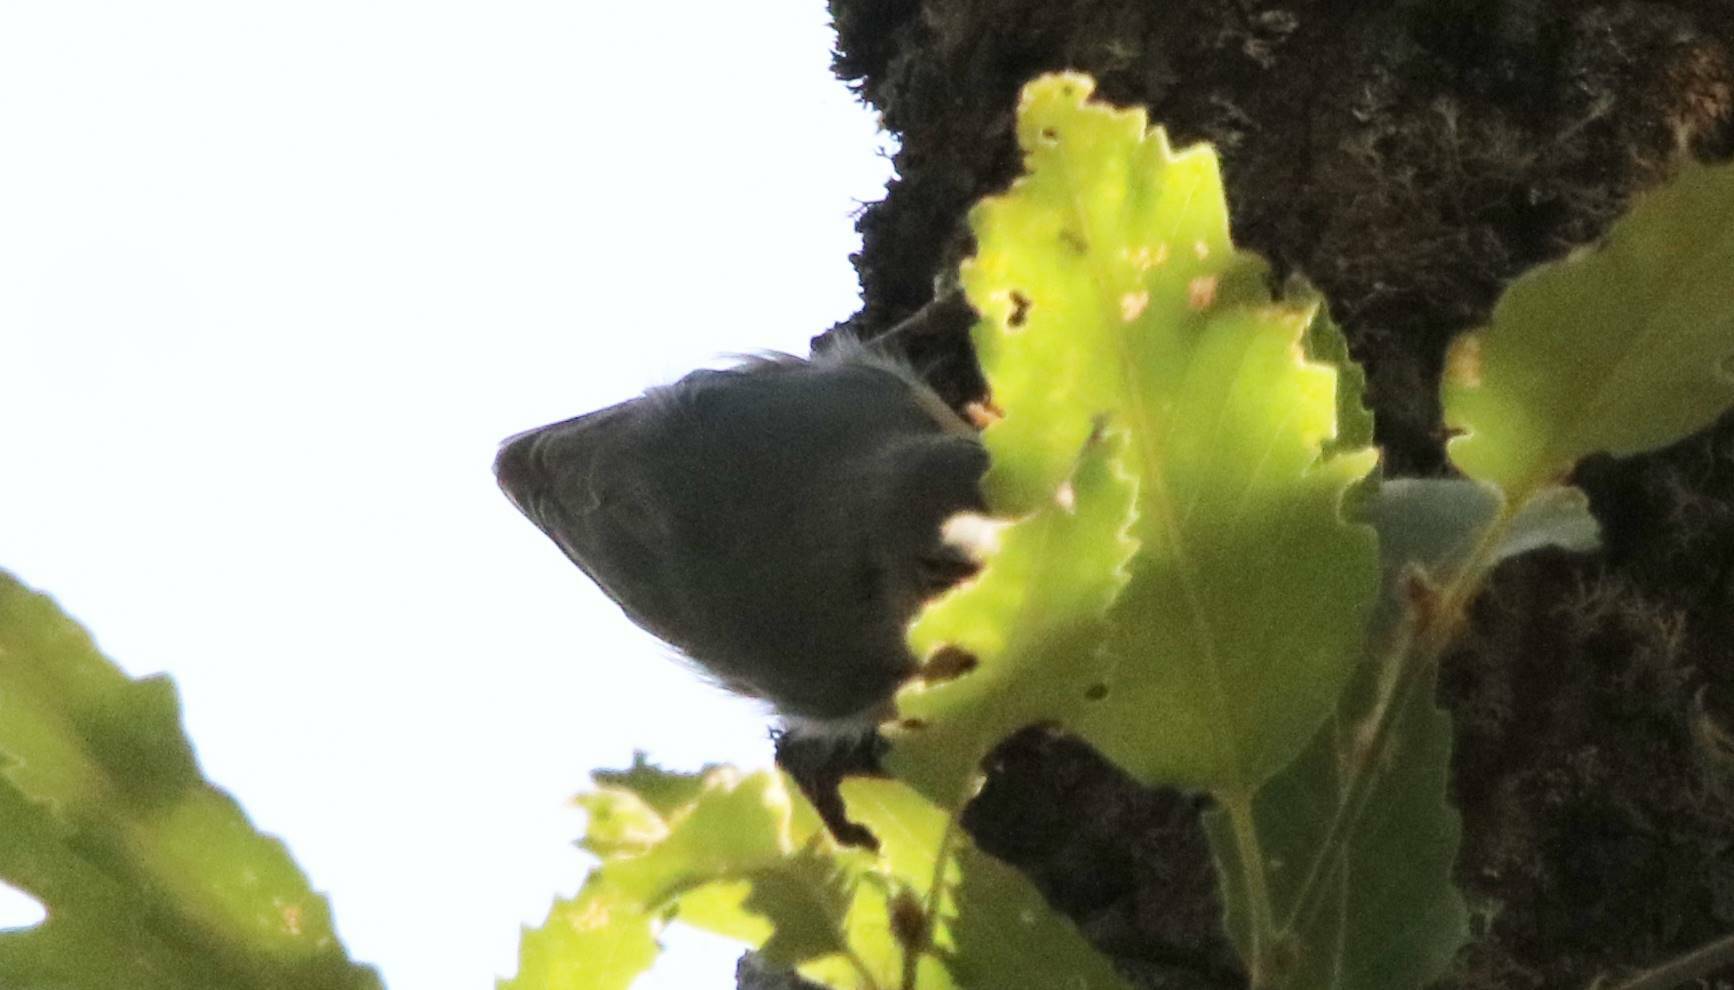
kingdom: Animalia
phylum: Chordata
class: Aves
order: Passeriformes
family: Sittidae
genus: Sitta
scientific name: Sitta ledanti
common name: Algerian nuthatch
